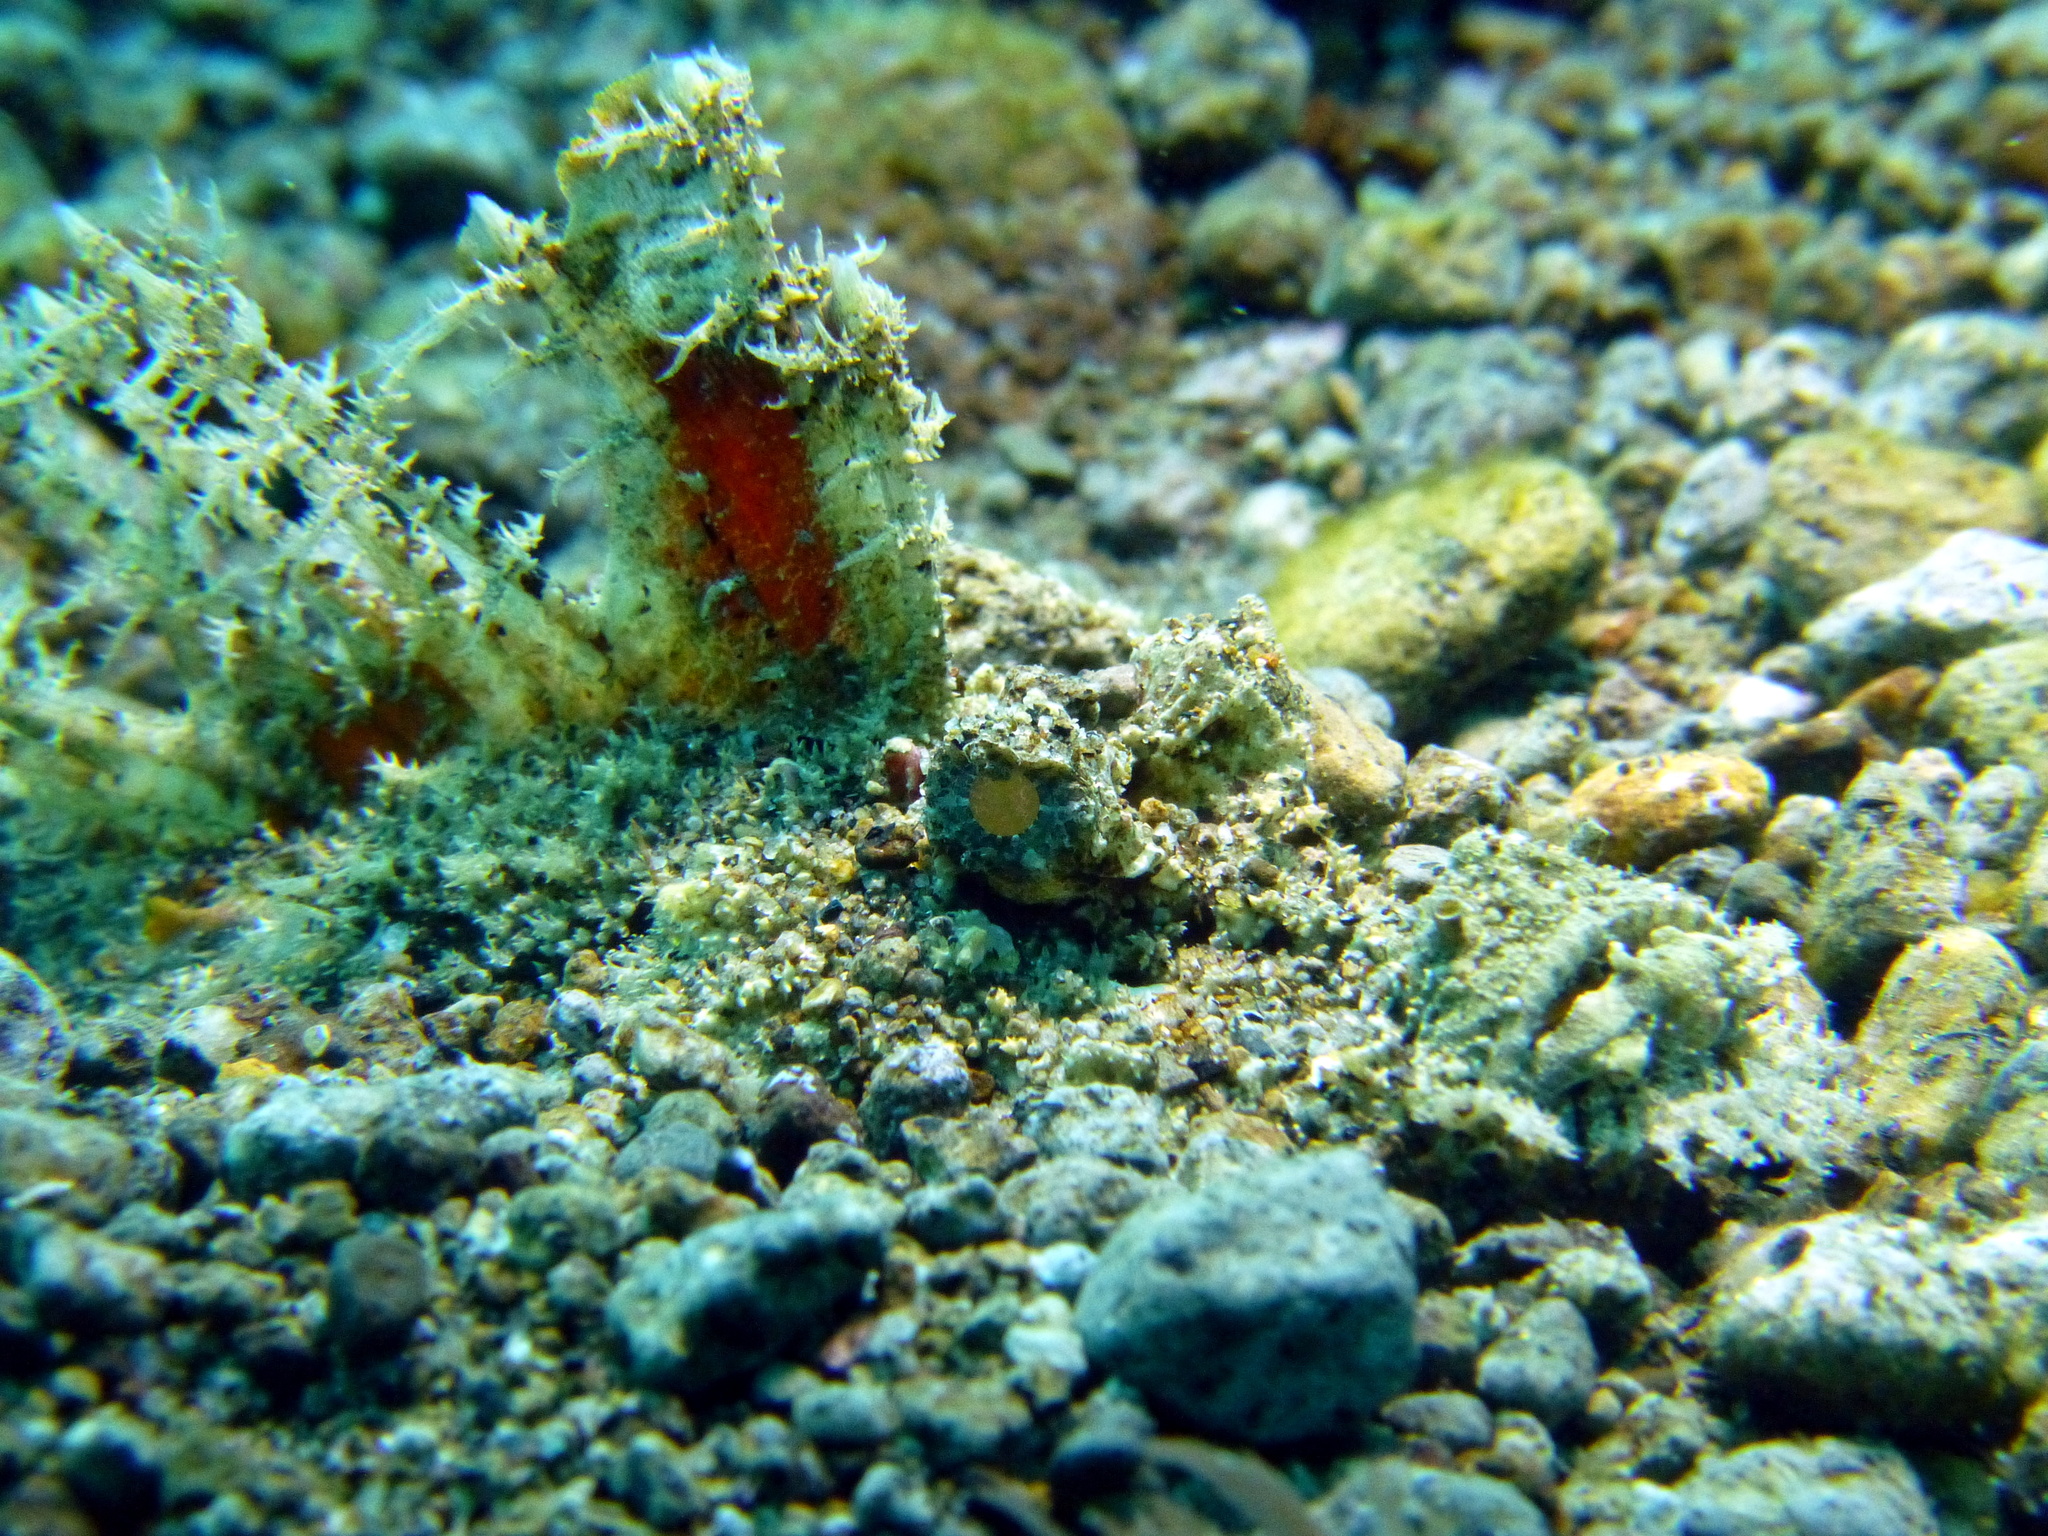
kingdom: Animalia
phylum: Chordata
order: Scorpaeniformes
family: Synanceiidae
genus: Inimicus
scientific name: Inimicus didactylus
